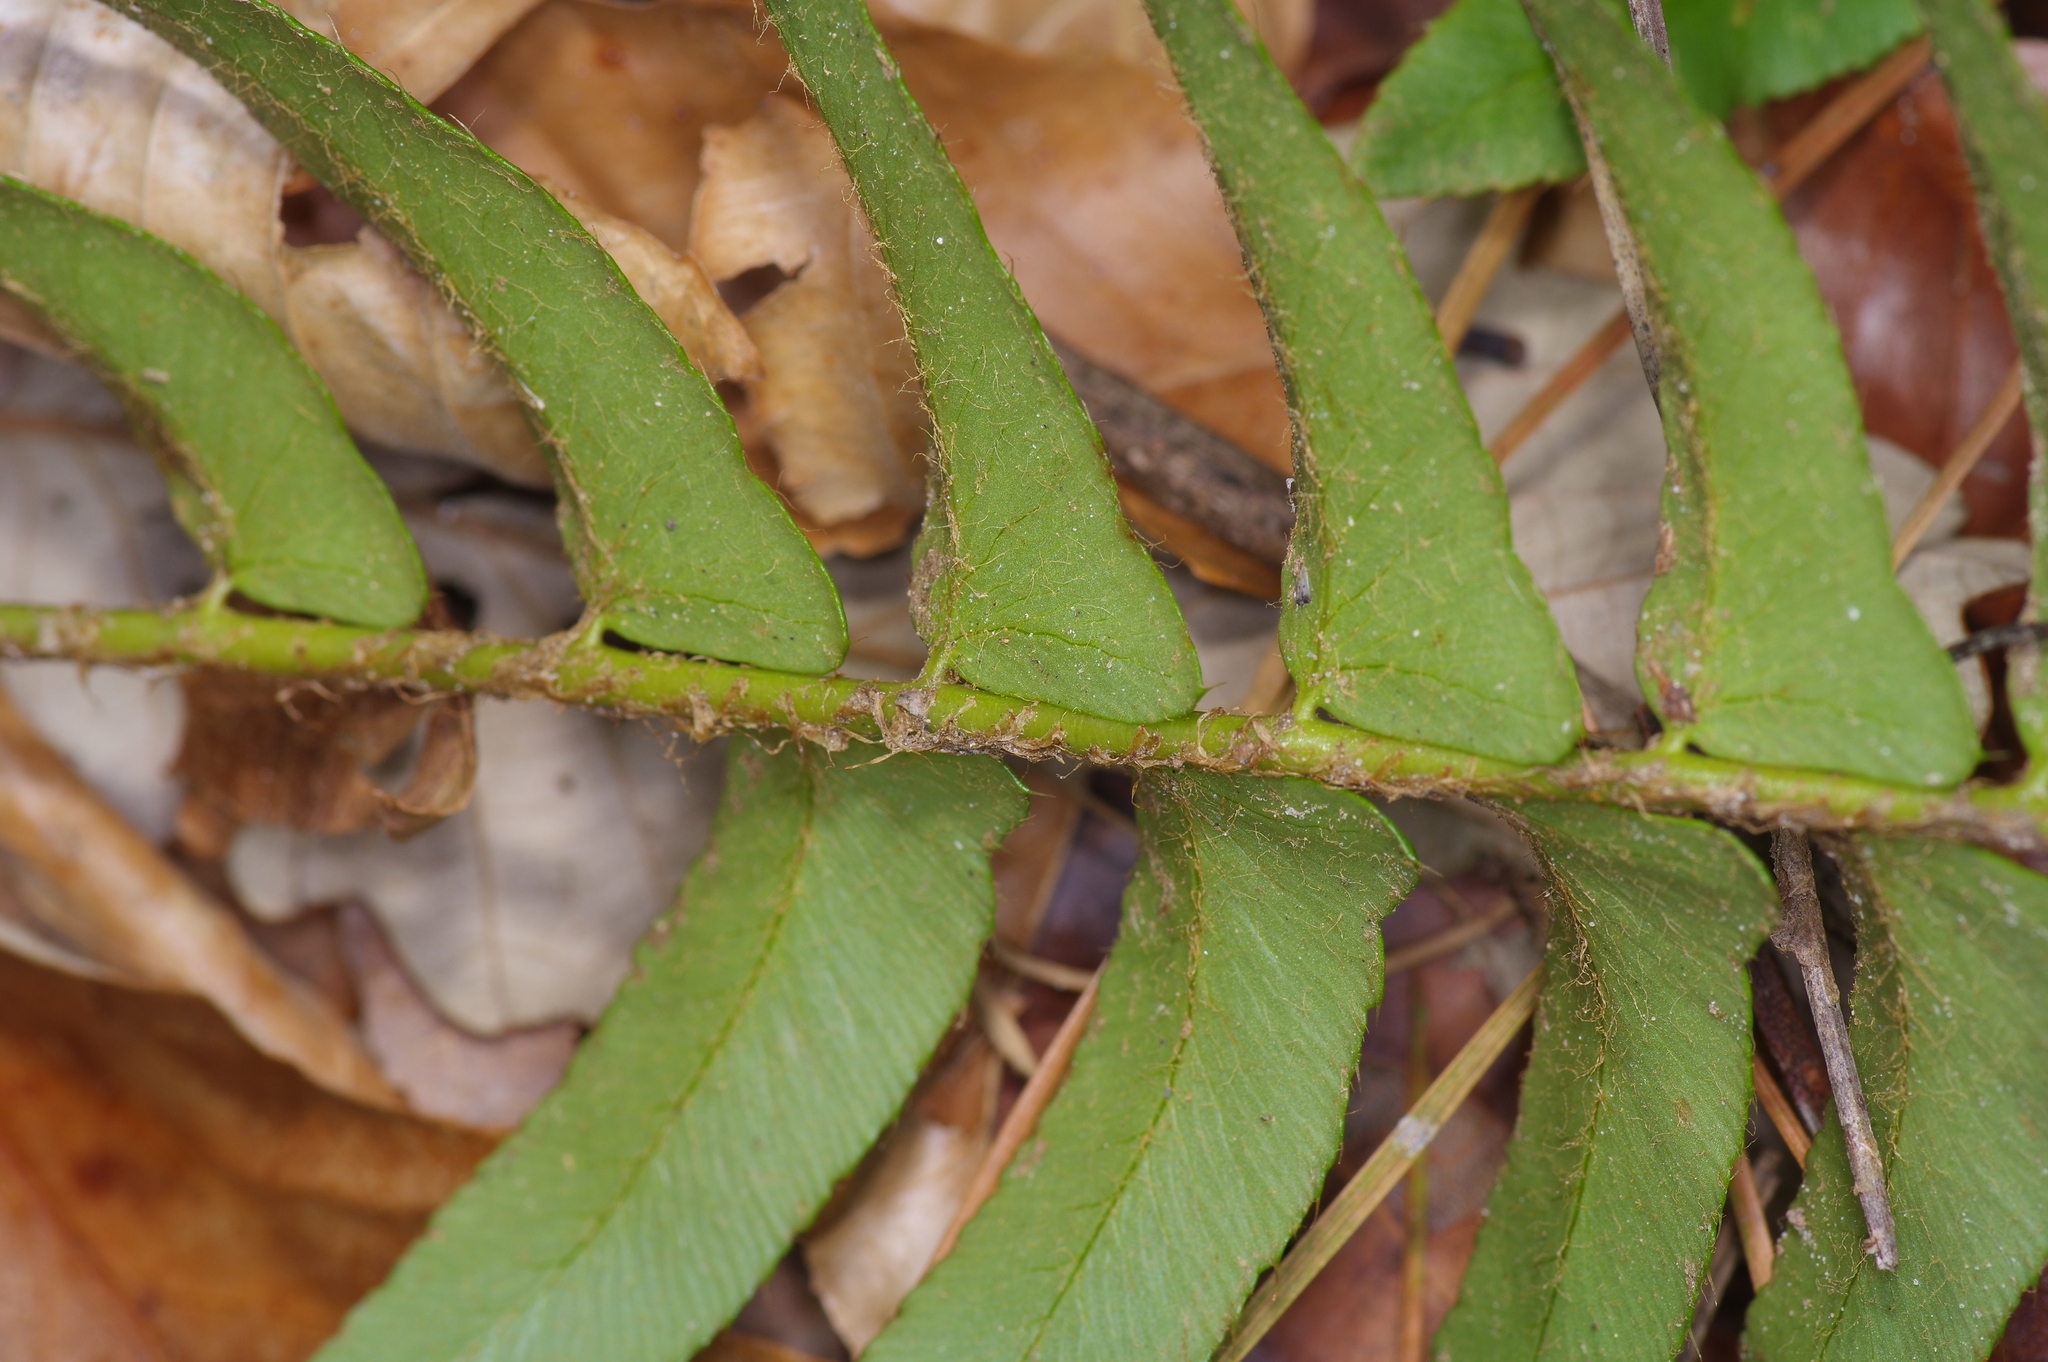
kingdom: Plantae
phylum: Tracheophyta
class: Polypodiopsida
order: Polypodiales
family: Dryopteridaceae
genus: Polystichum
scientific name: Polystichum acrostichoides
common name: Christmas fern
